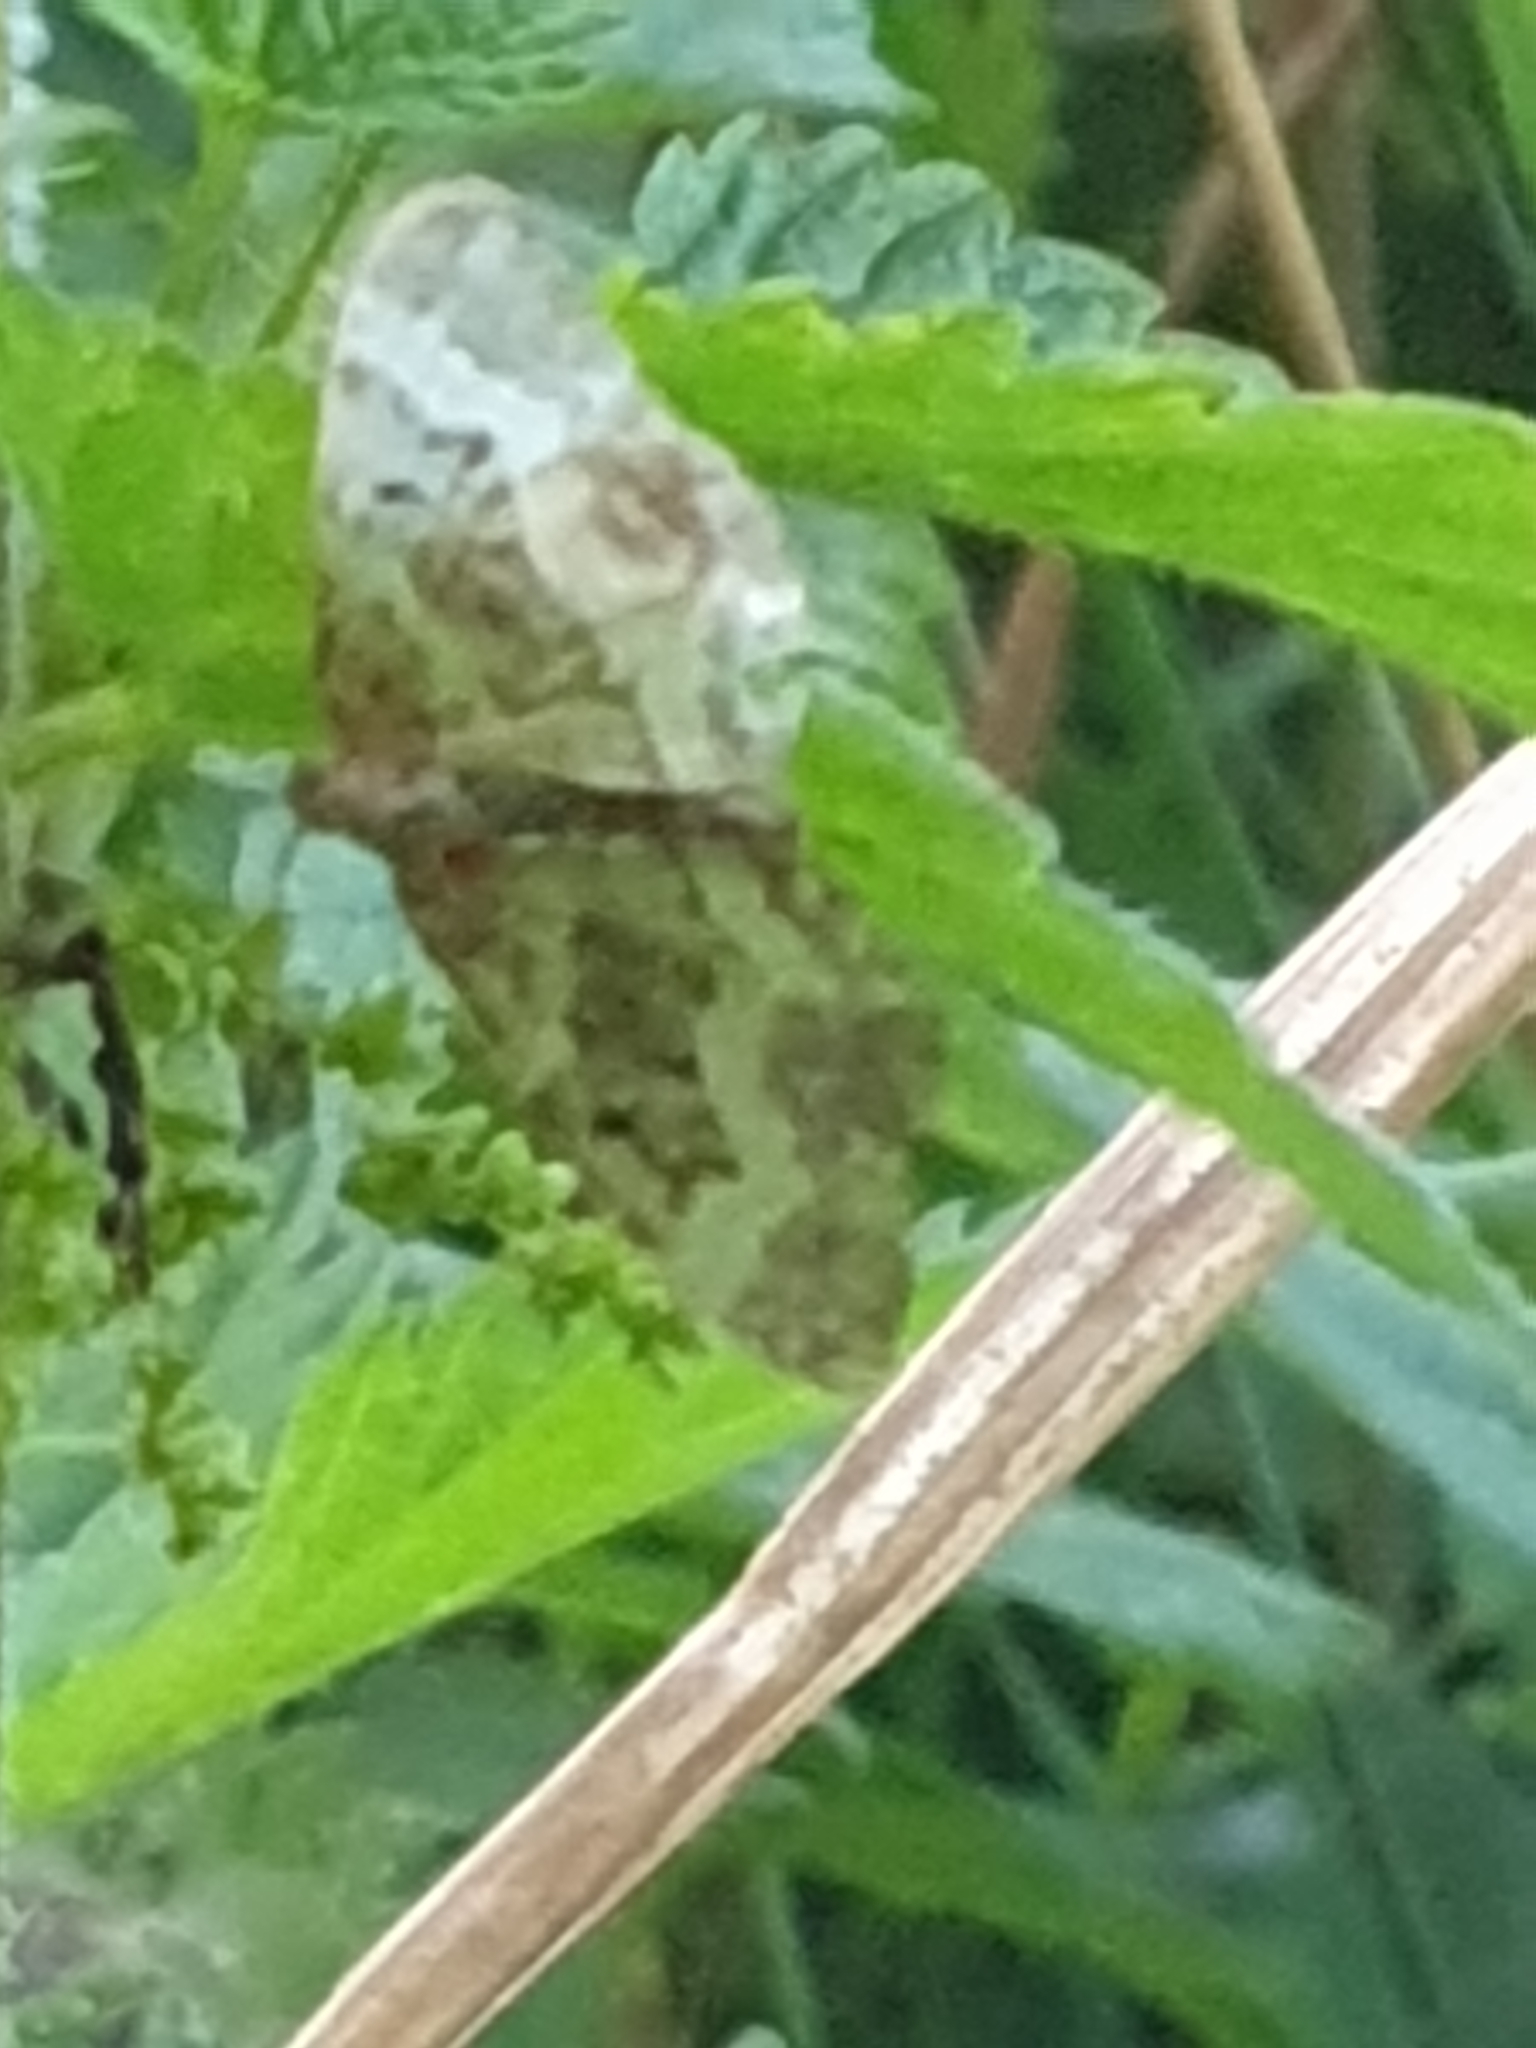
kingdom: Animalia
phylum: Arthropoda
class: Insecta
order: Lepidoptera
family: Geometridae
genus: Epirrhoe
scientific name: Epirrhoe alternata
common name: Common carpet
